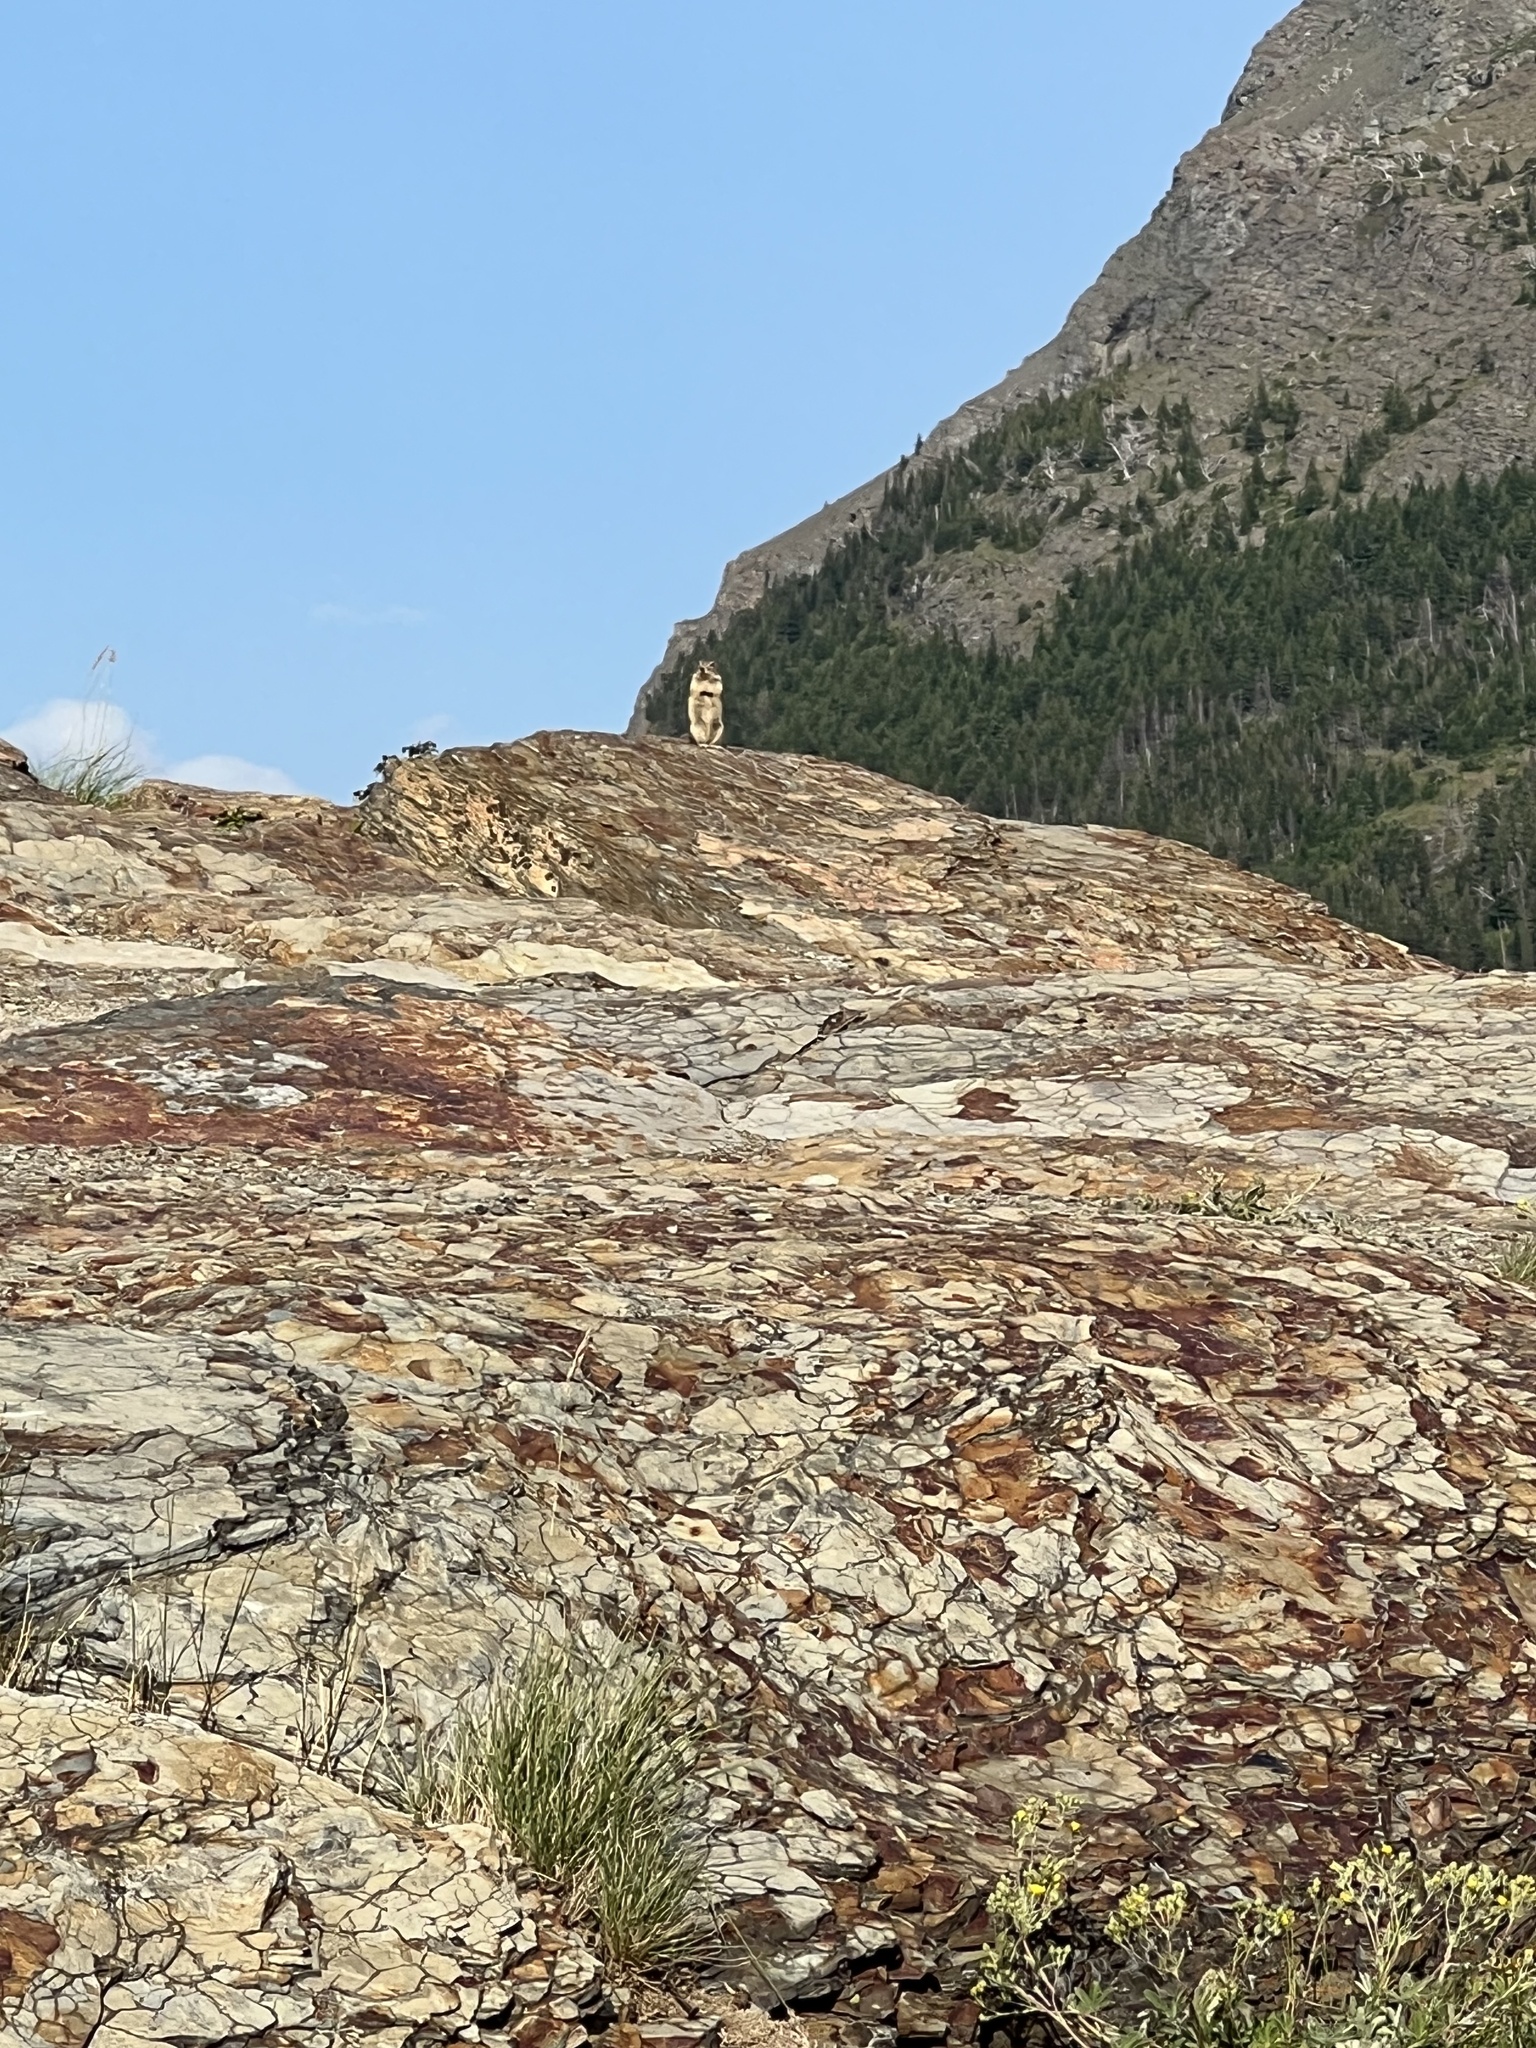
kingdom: Animalia
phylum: Chordata
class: Mammalia
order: Rodentia
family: Sciuridae
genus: Callospermophilus
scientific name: Callospermophilus lateralis
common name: Golden-mantled ground squirrel
